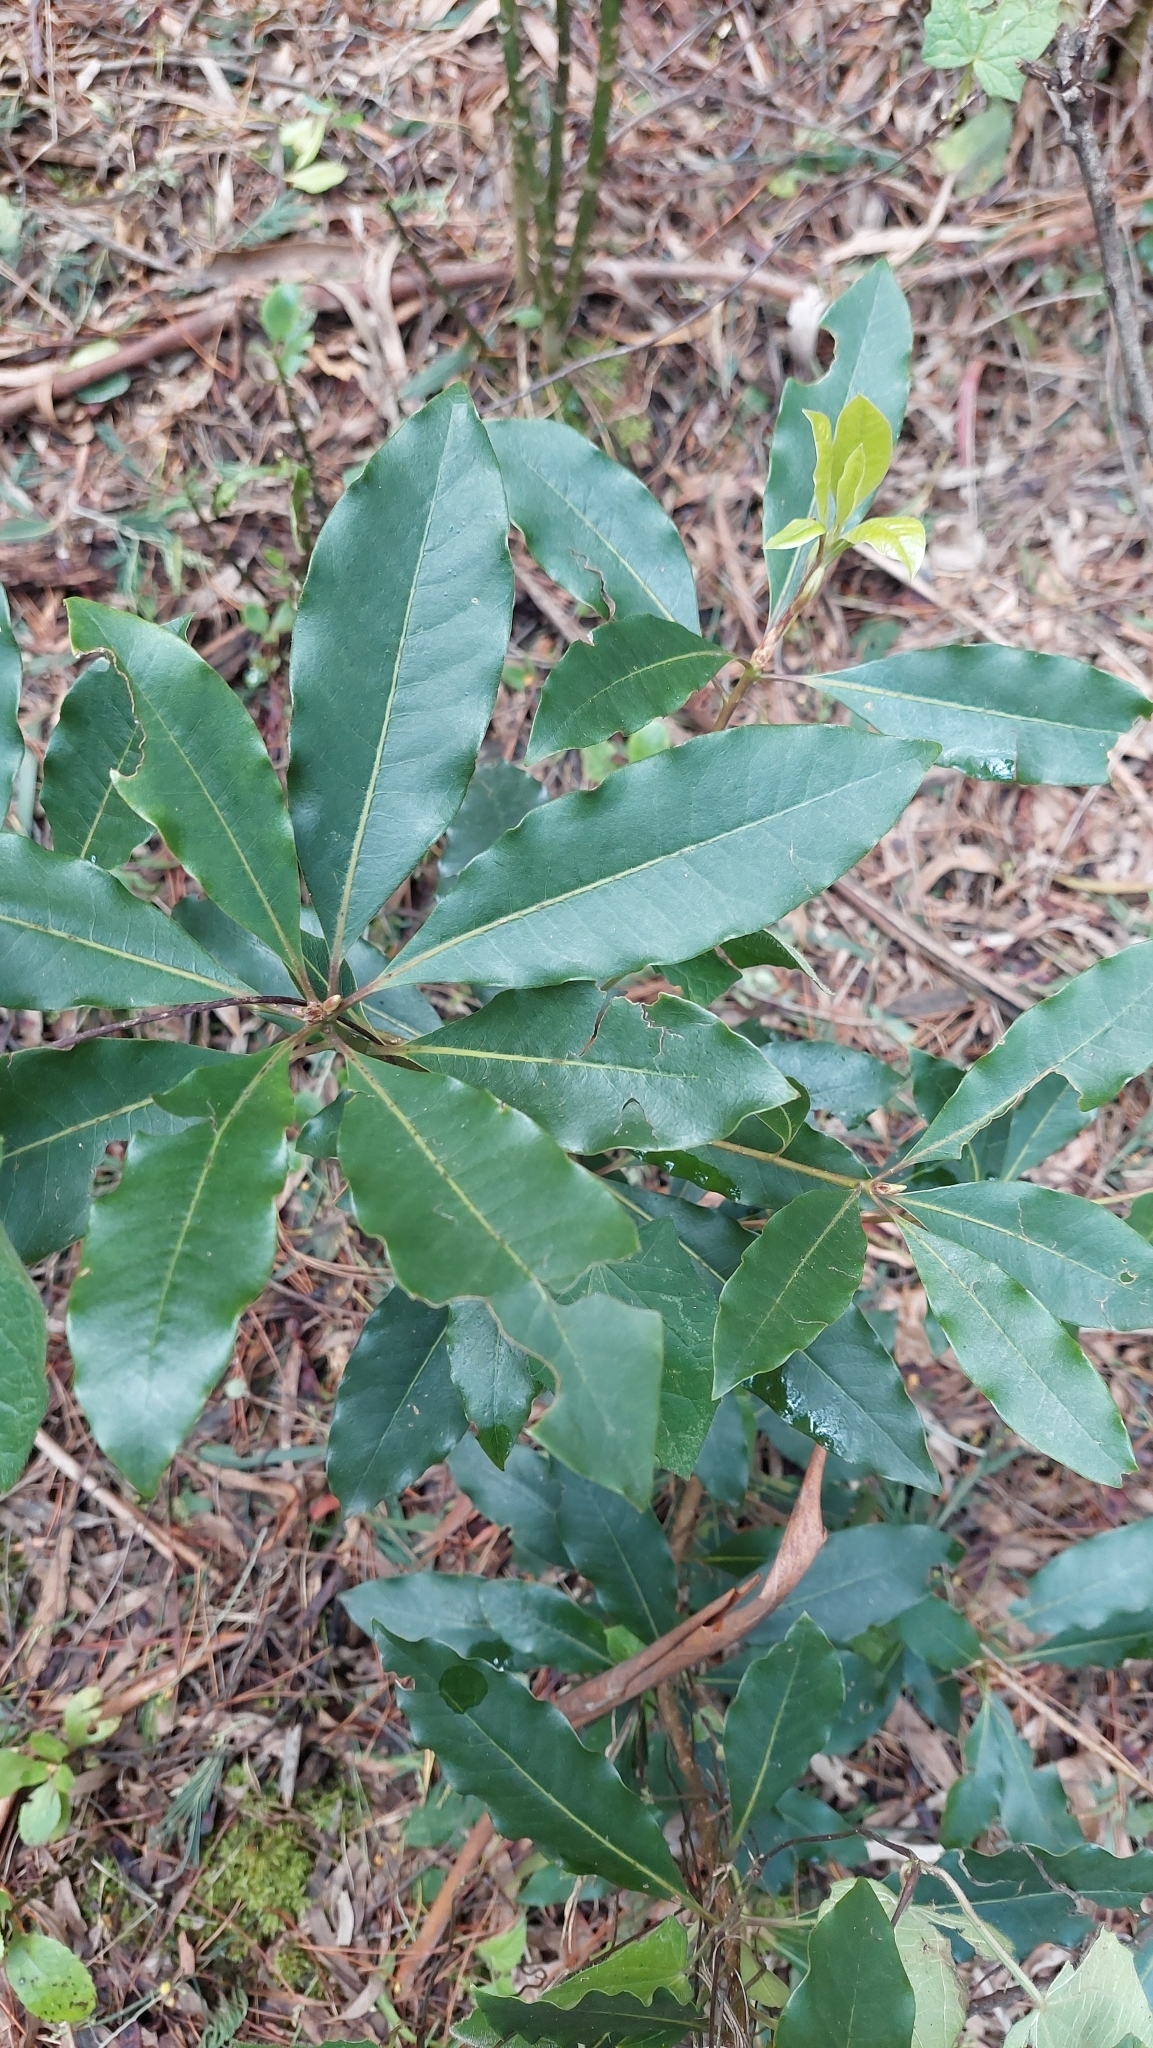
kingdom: Plantae
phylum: Tracheophyta
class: Magnoliopsida
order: Apiales
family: Pittosporaceae
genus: Pittosporum
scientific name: Pittosporum undulatum
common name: Australian cheesewood
